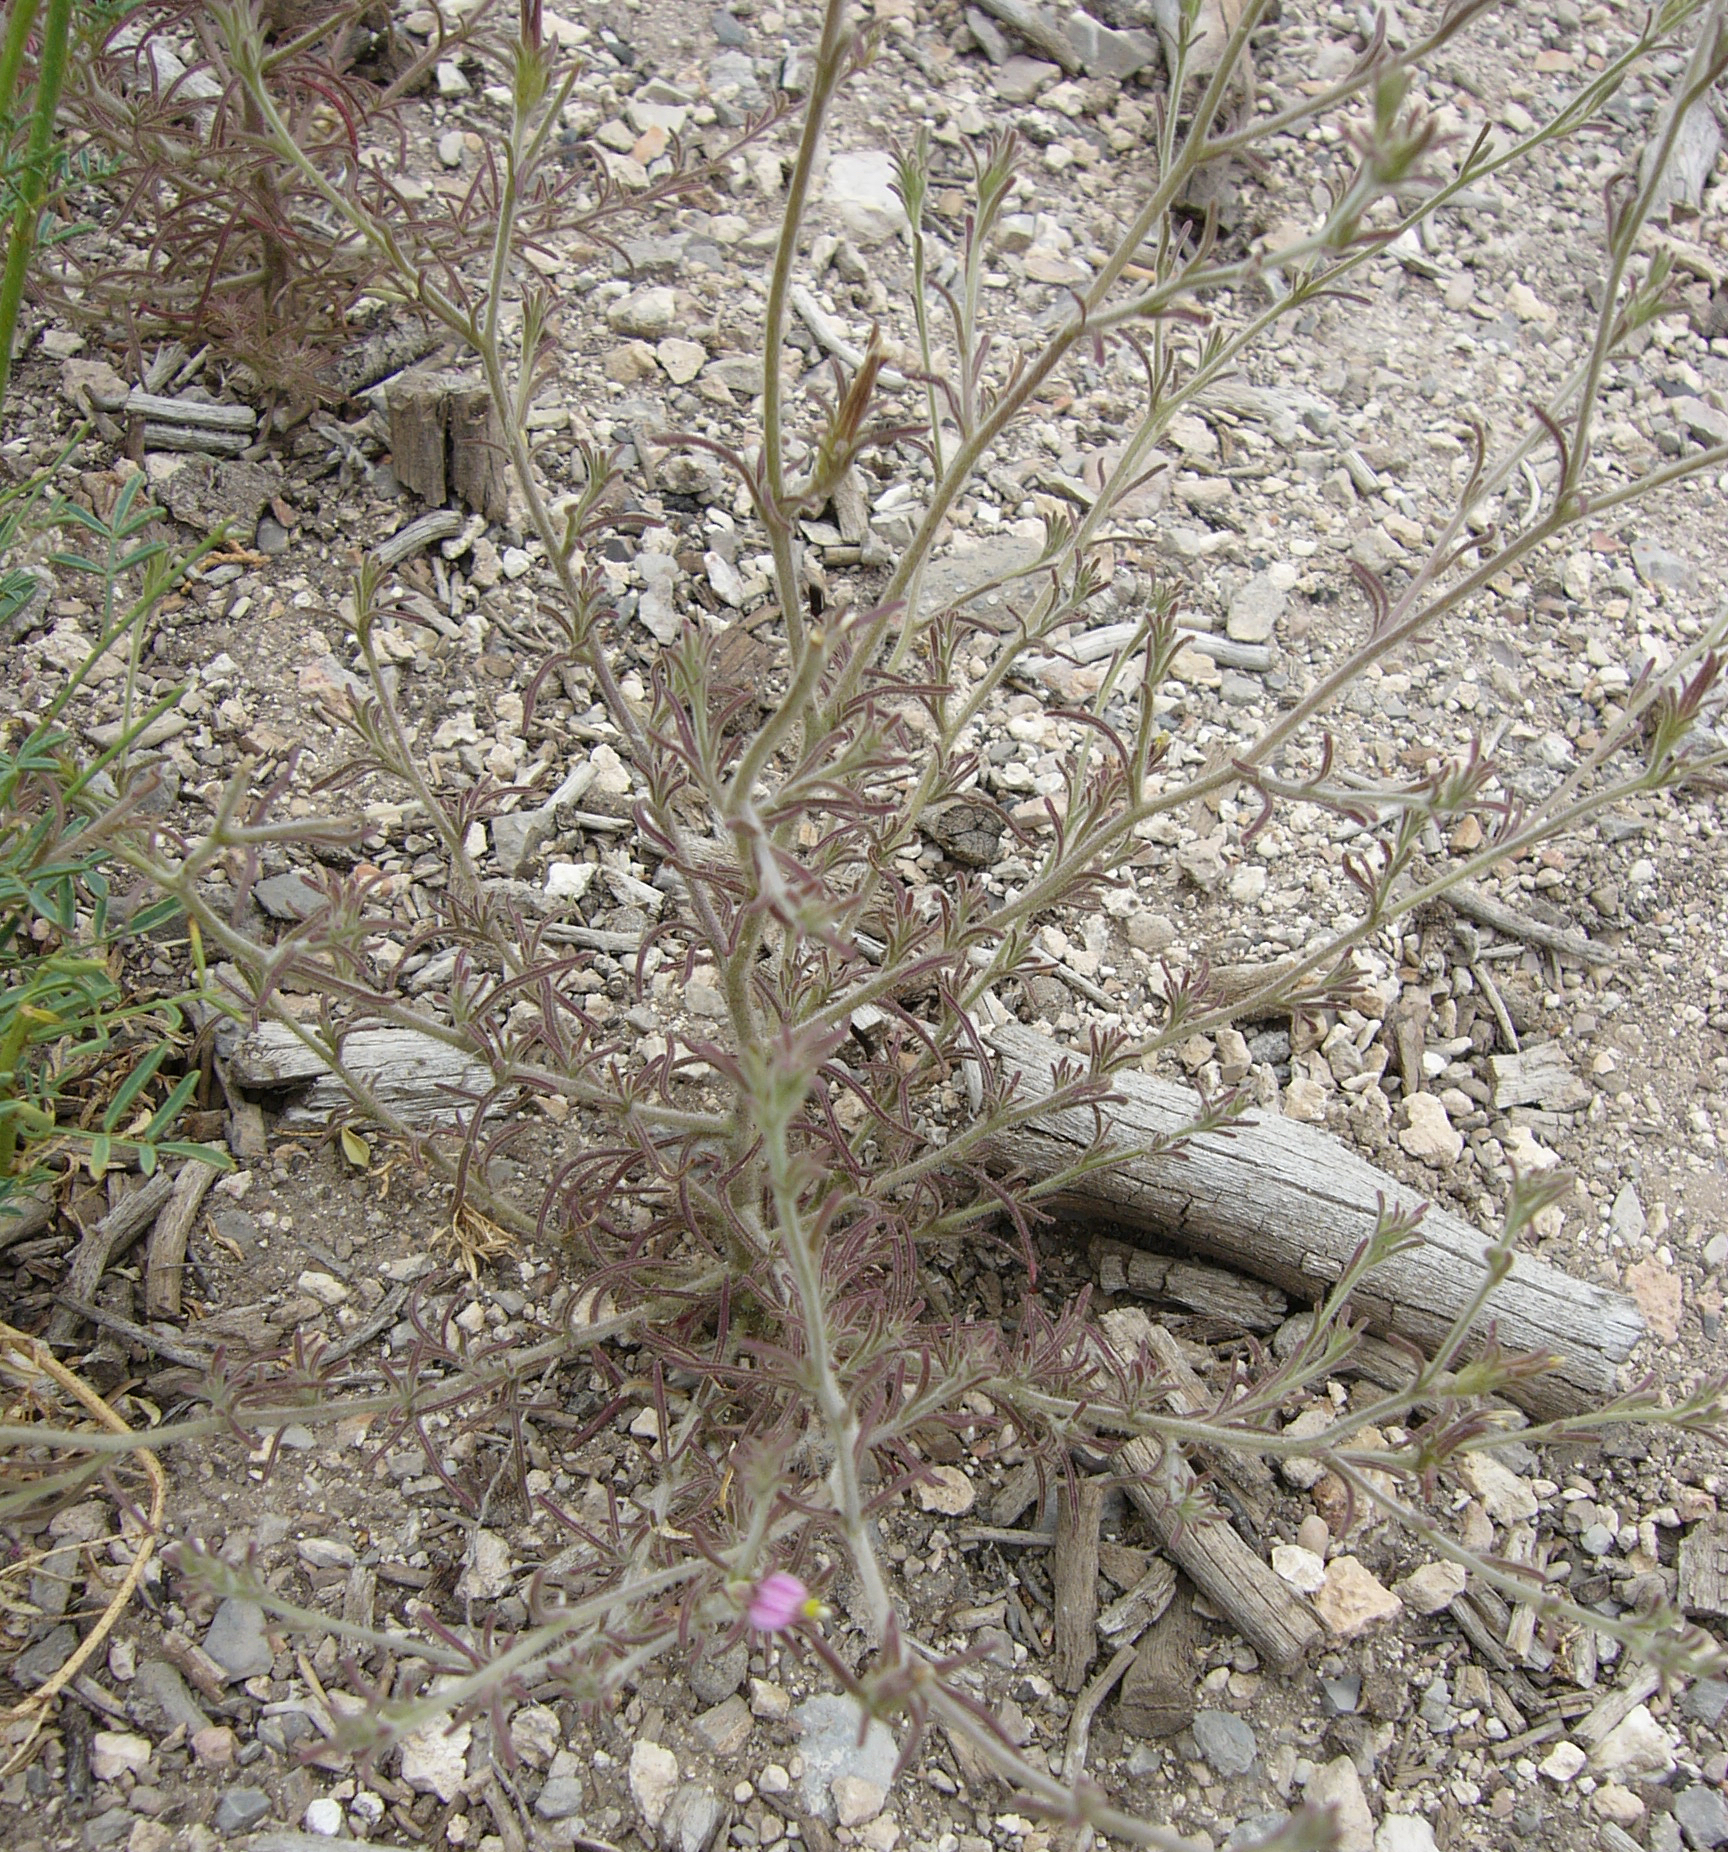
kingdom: Plantae
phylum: Tracheophyta
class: Magnoliopsida
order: Lamiales
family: Orobanchaceae
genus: Cordylanthus
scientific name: Cordylanthus kingii
